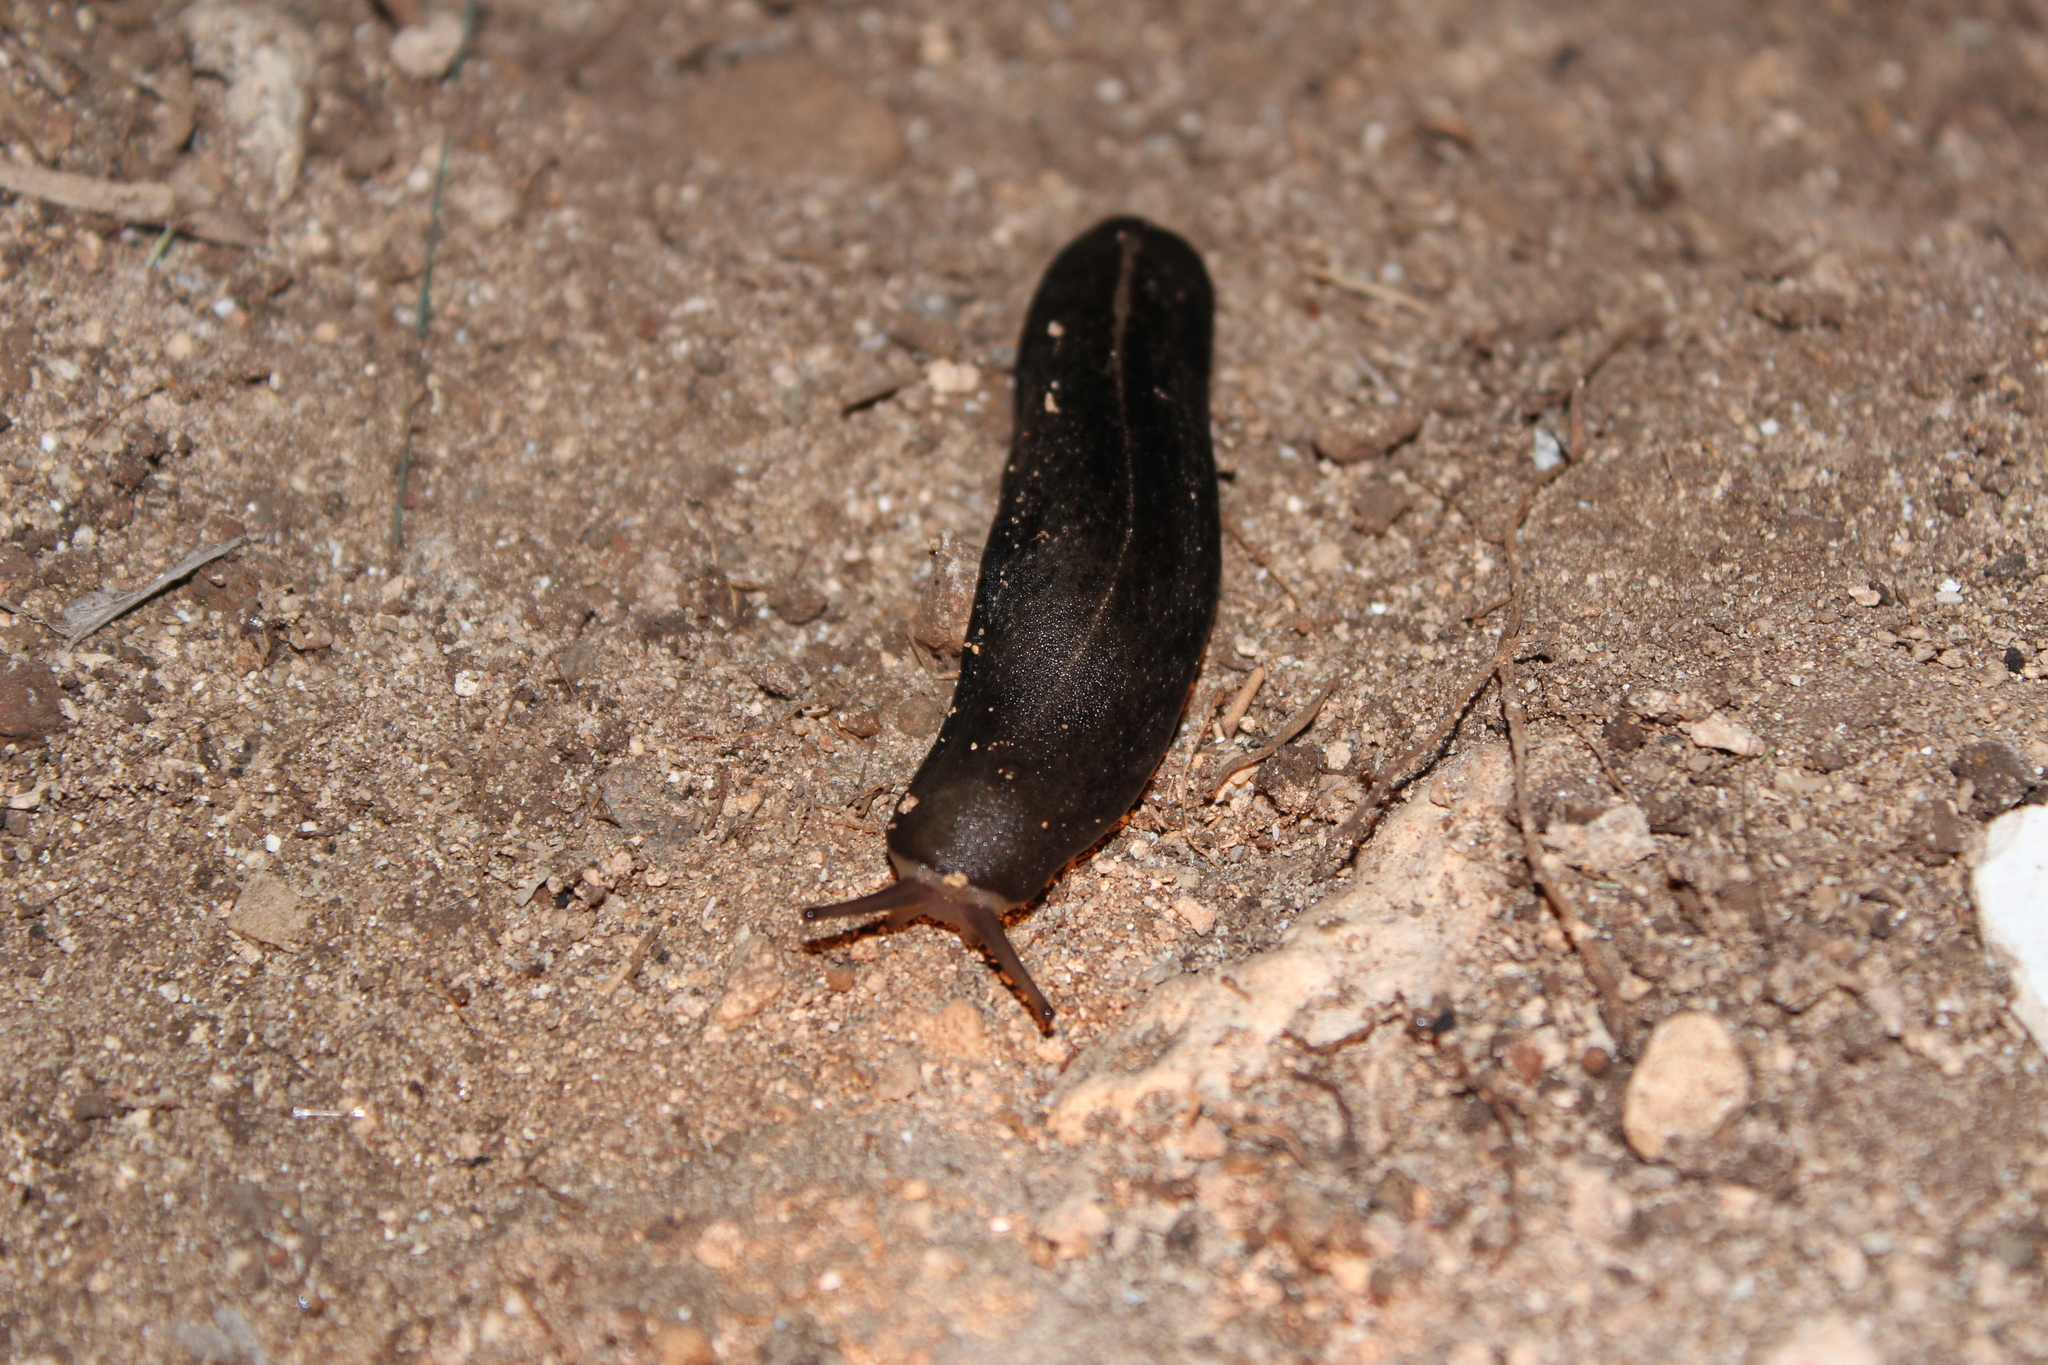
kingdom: Animalia
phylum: Mollusca
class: Gastropoda
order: Systellommatophora
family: Veronicellidae
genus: Laevicaulis
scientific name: Laevicaulis alte
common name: Tropical leatherleaf
